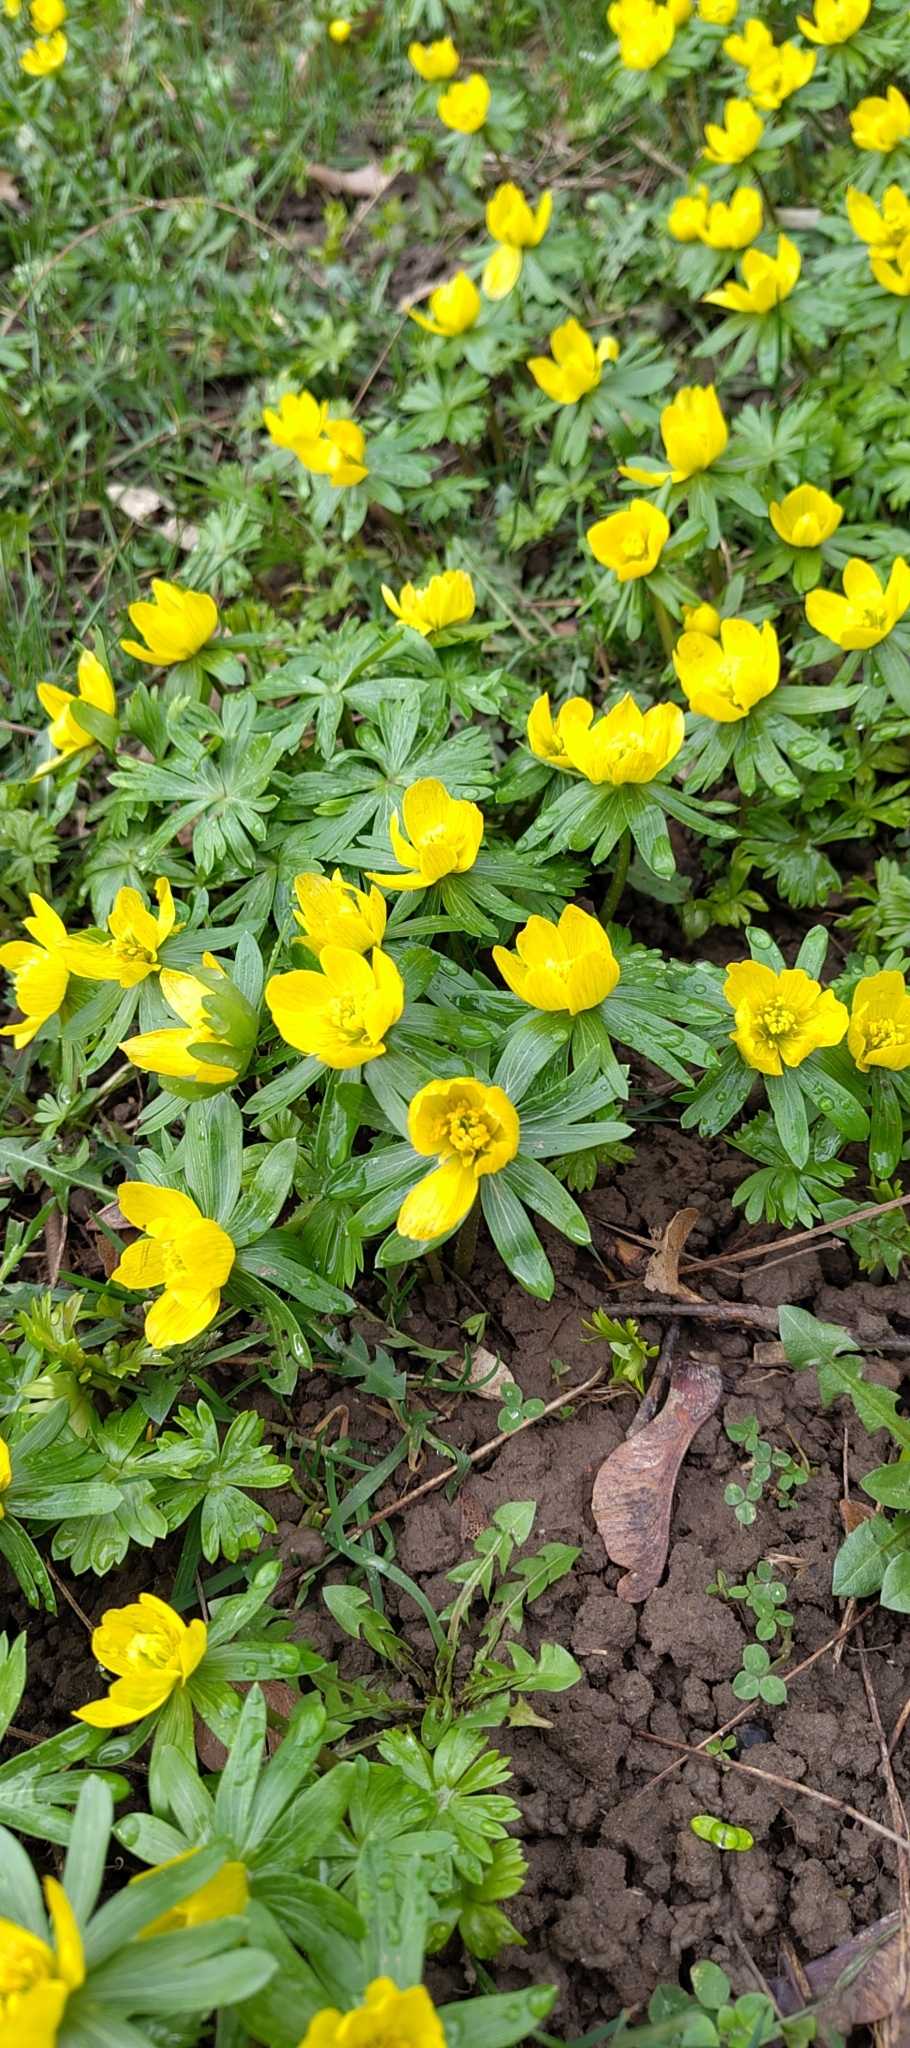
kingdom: Plantae
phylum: Tracheophyta
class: Magnoliopsida
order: Ranunculales
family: Ranunculaceae
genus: Eranthis
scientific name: Eranthis hyemalis
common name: Winter aconite
